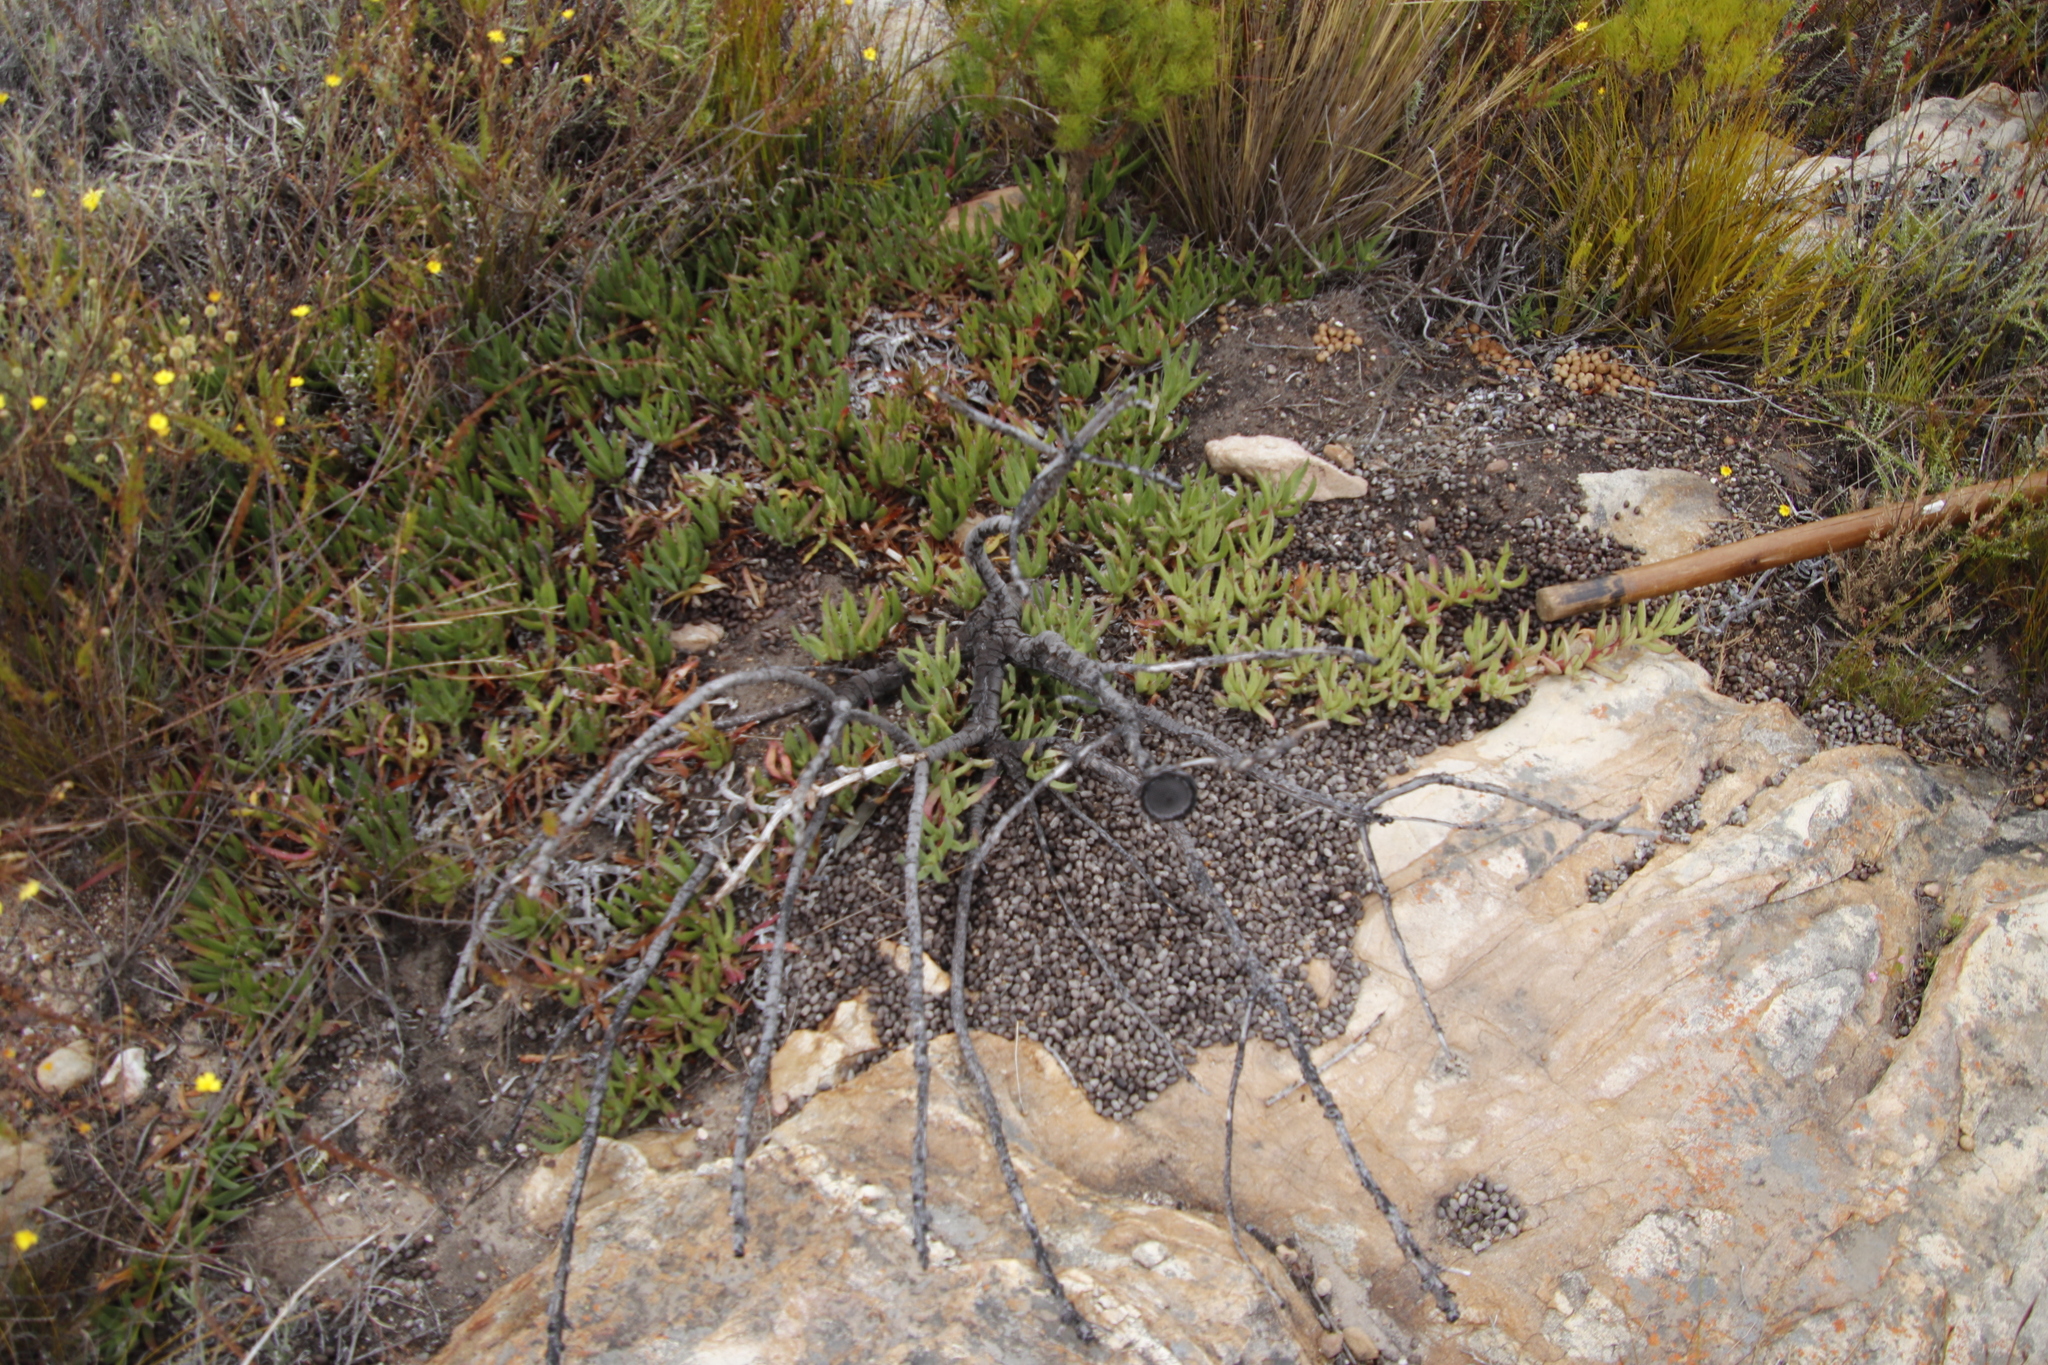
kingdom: Animalia
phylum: Chordata
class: Mammalia
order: Artiodactyla
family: Bovidae
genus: Oreotragus
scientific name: Oreotragus oreotragus
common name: Klipspringer
